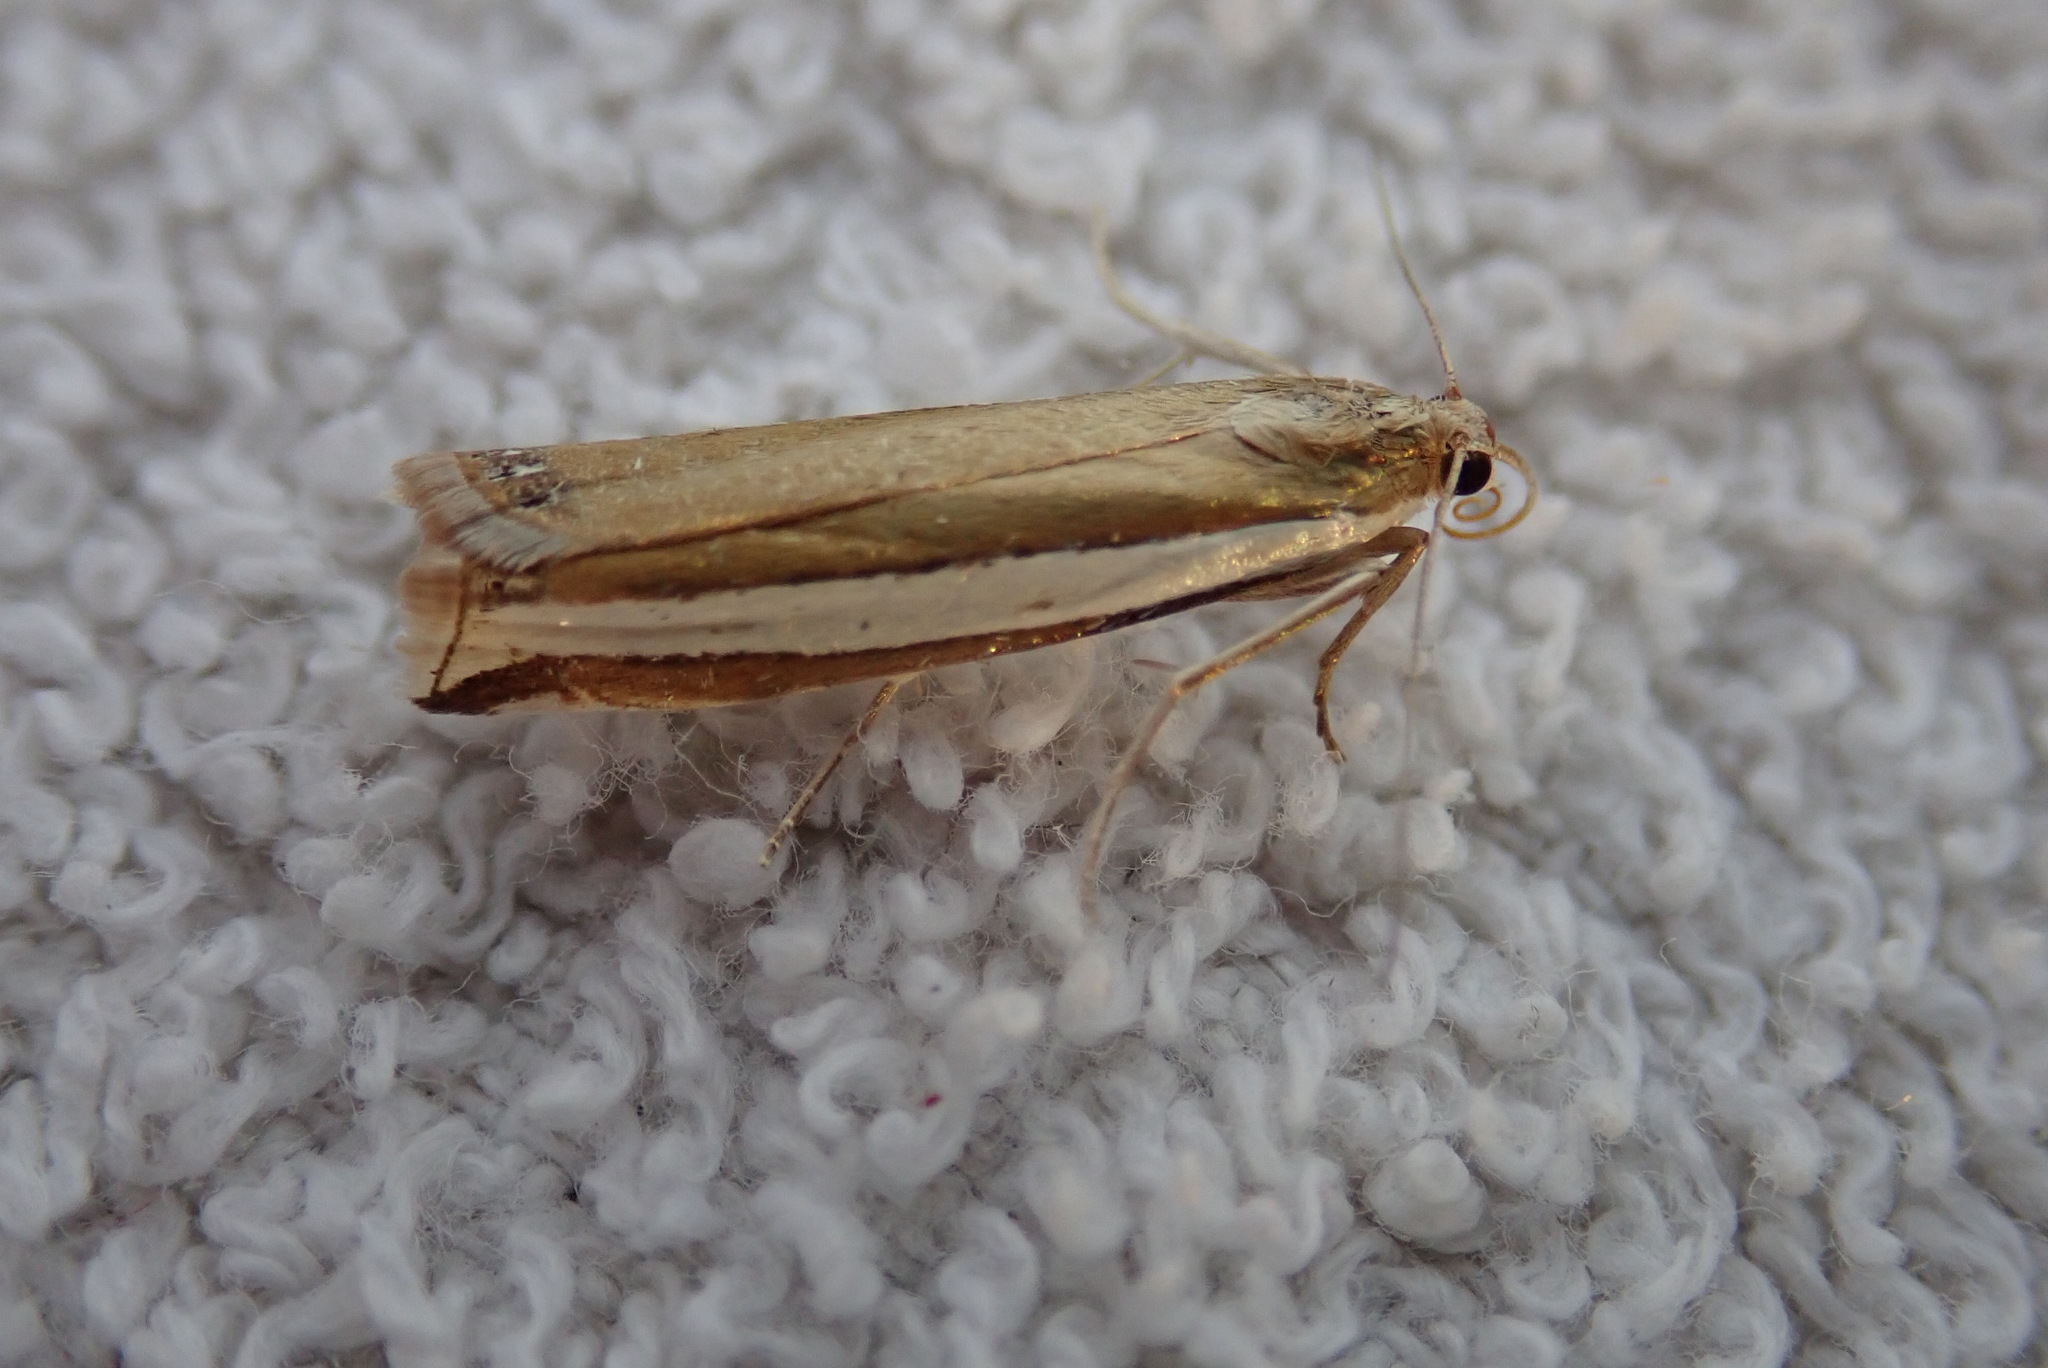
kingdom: Animalia
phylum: Arthropoda
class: Insecta
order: Lepidoptera
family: Crambidae
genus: Crambus
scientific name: Crambus unistriatellus
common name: Wide-stripe grass-veneer moth
